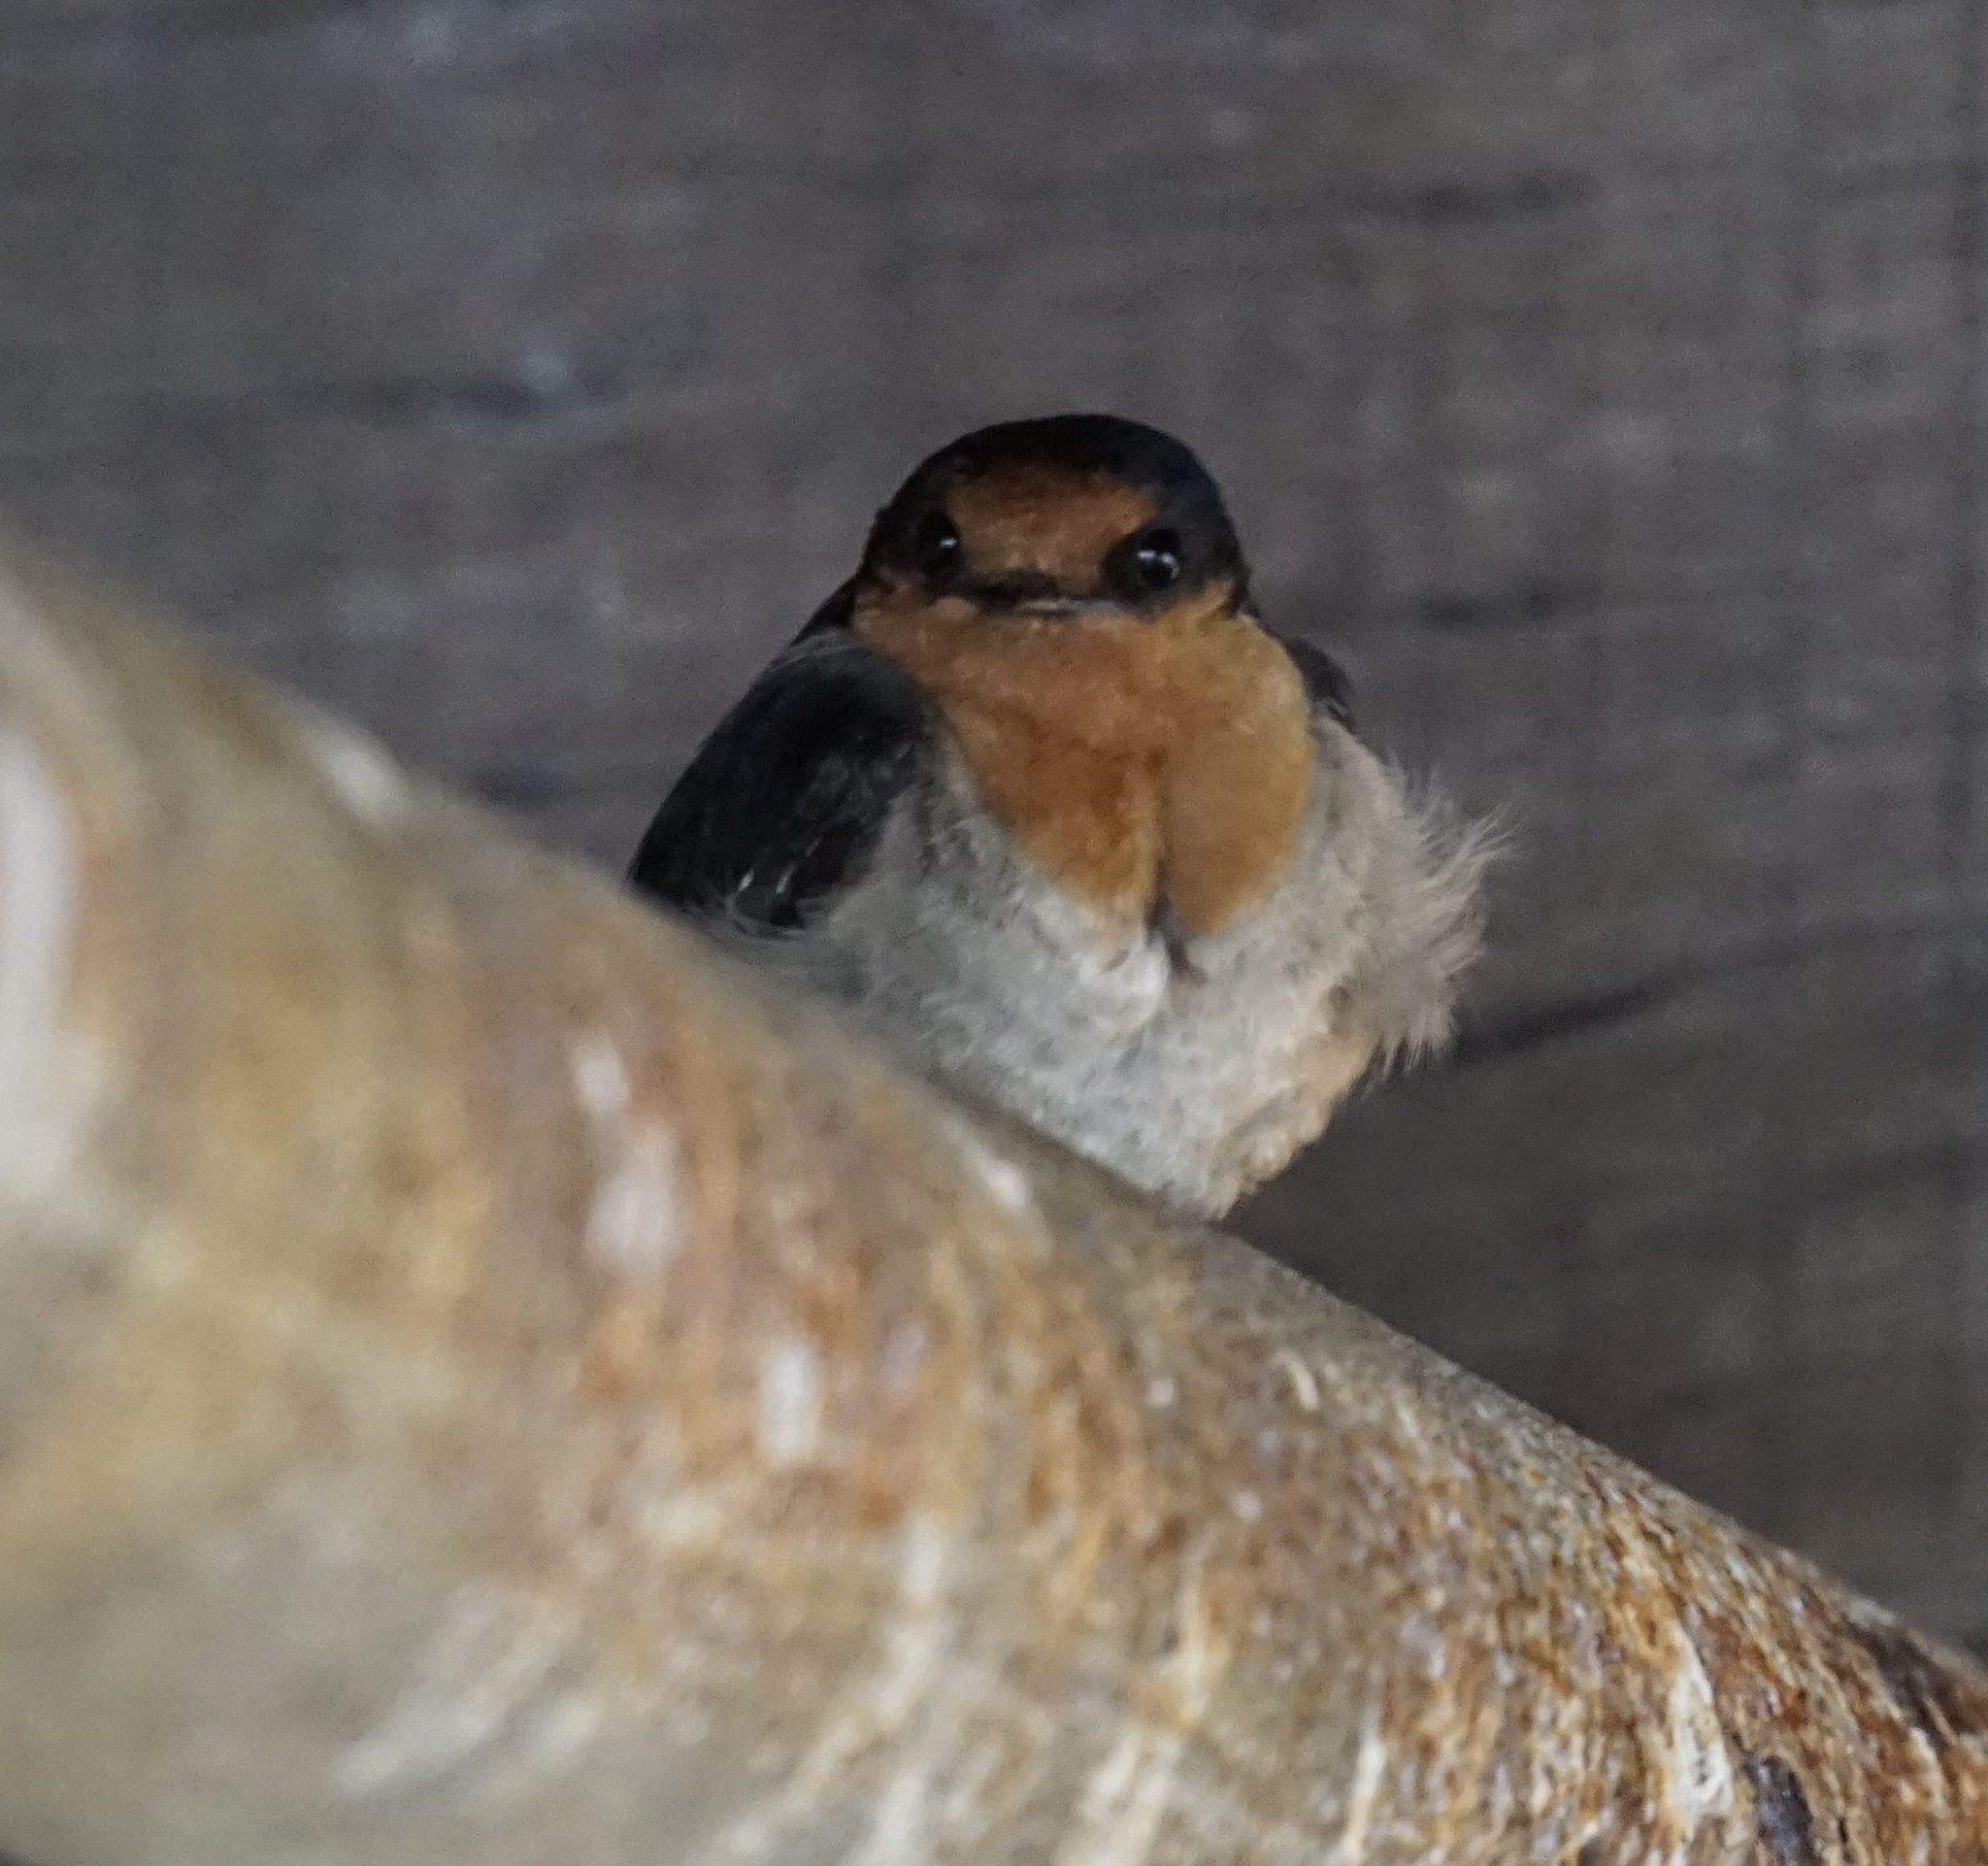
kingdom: Animalia
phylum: Chordata
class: Aves
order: Passeriformes
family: Hirundinidae
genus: Hirundo
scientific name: Hirundo neoxena
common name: Welcome swallow
